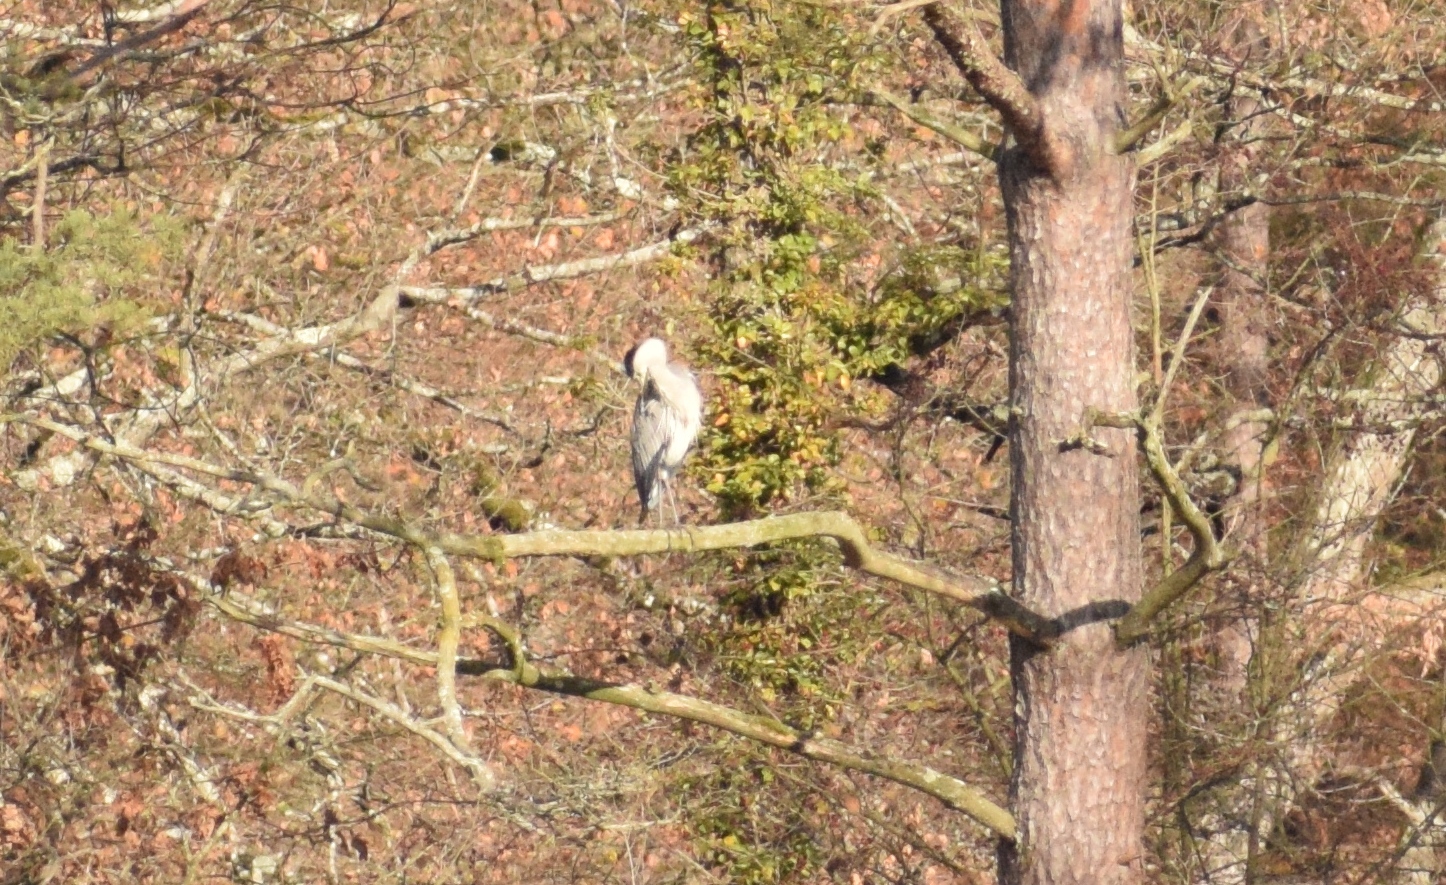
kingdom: Animalia
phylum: Chordata
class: Aves
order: Pelecaniformes
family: Ardeidae
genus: Ardea
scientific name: Ardea cinerea
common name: Grey heron
